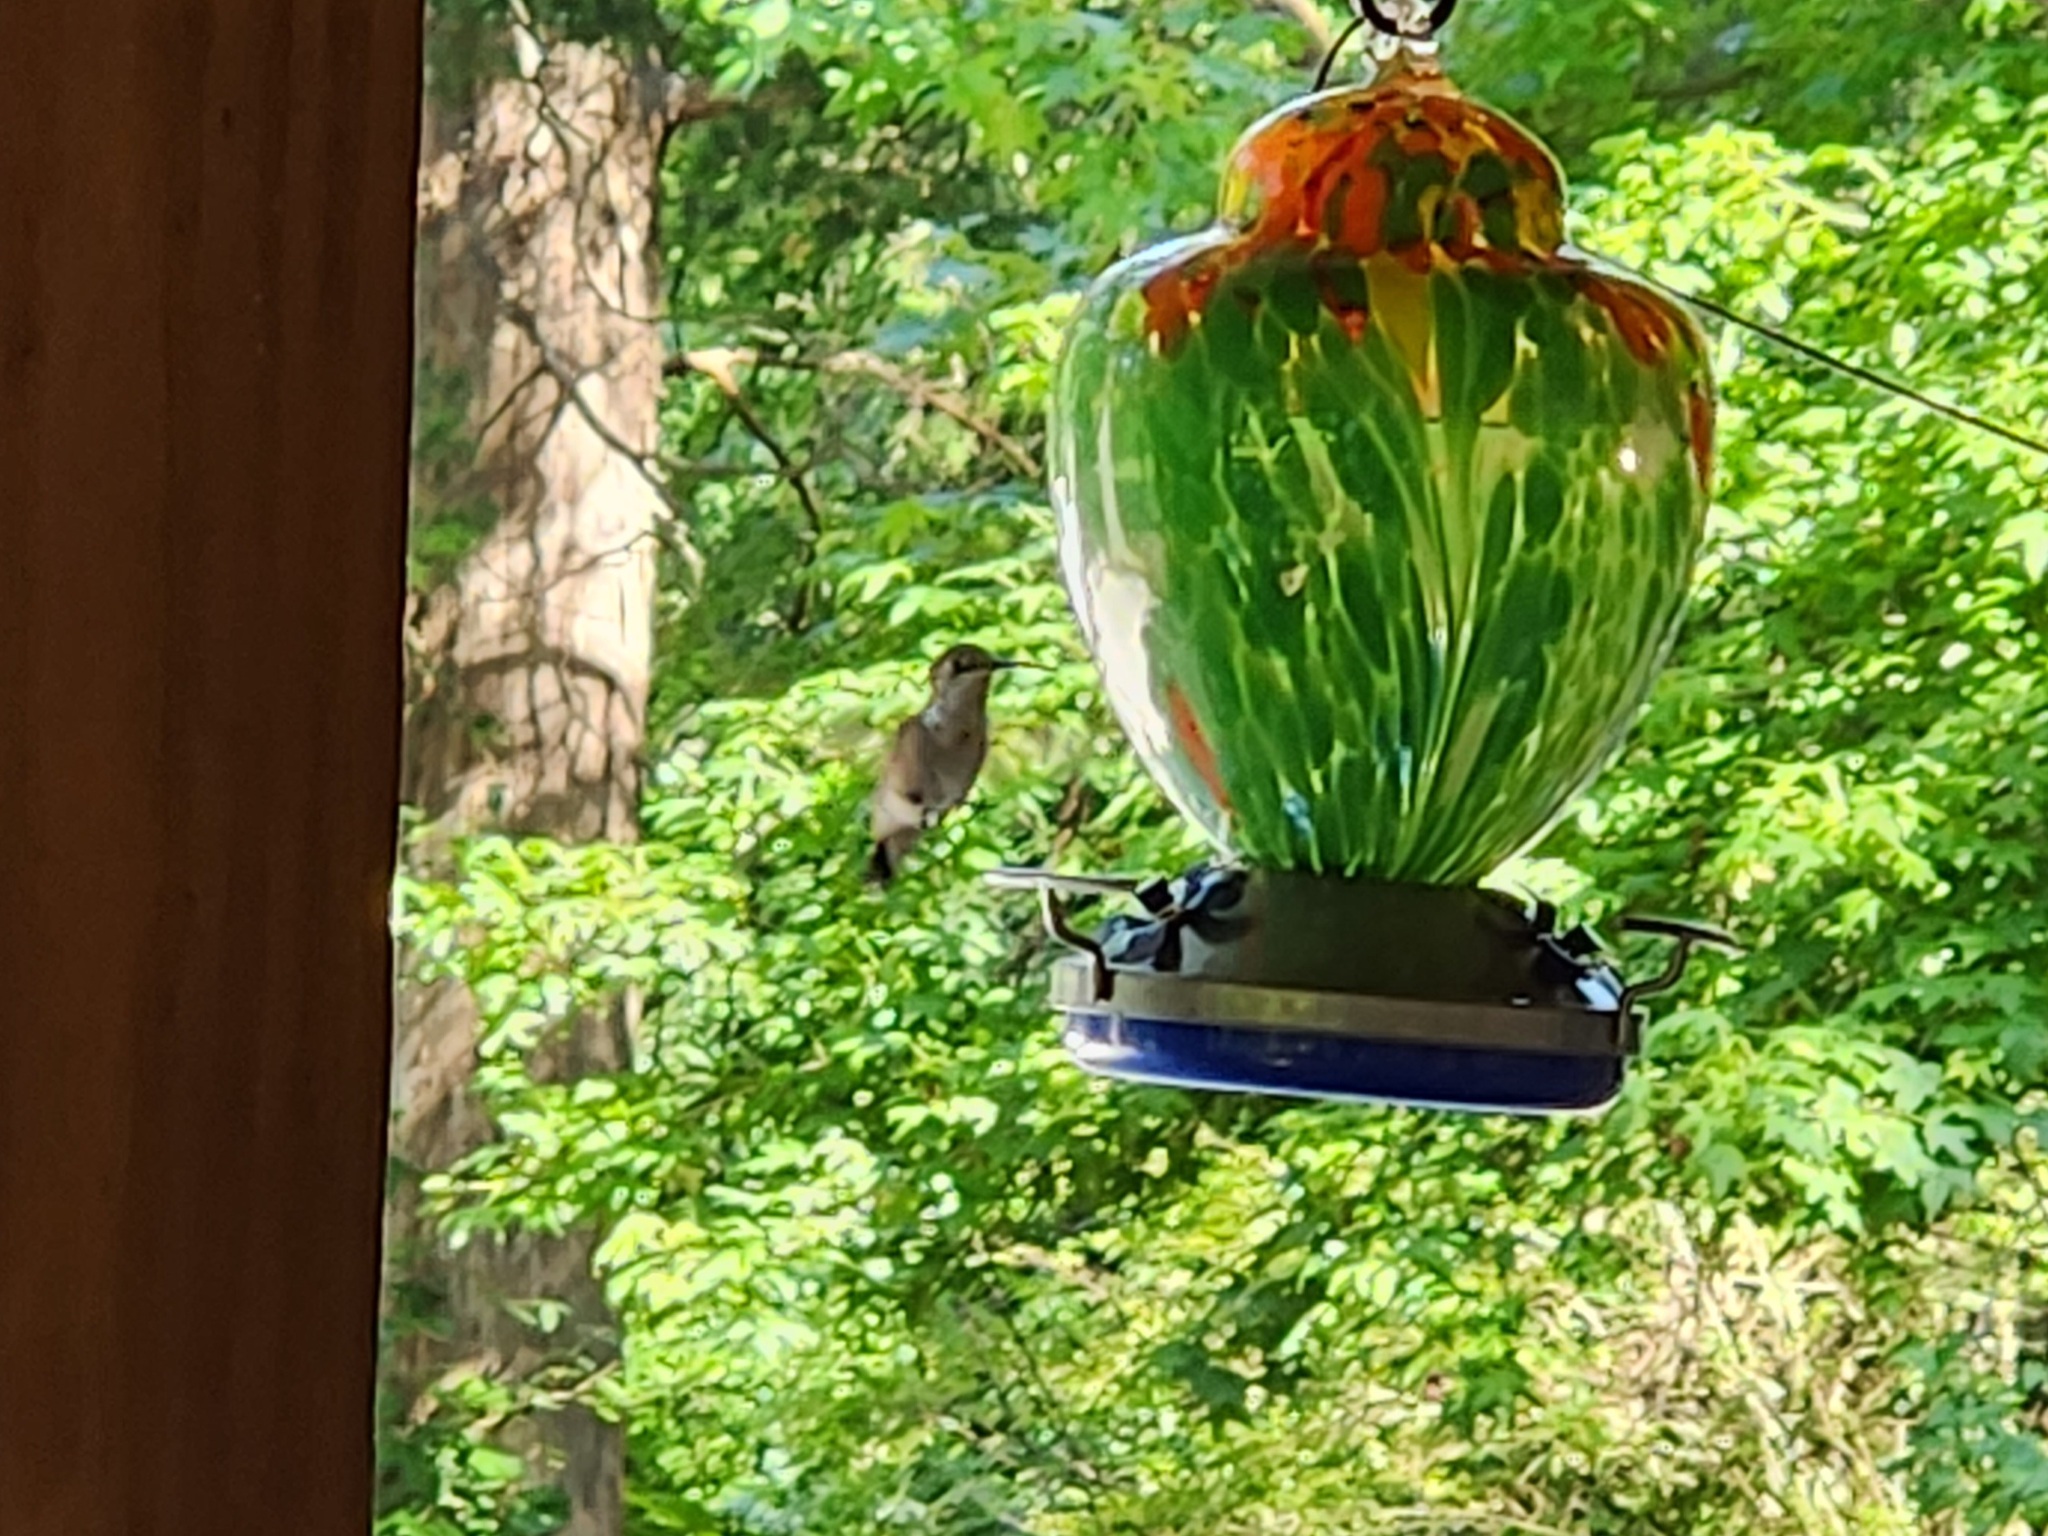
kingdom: Animalia
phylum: Chordata
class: Aves
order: Apodiformes
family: Trochilidae
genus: Archilochus
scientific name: Archilochus colubris
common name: Ruby-throated hummingbird
